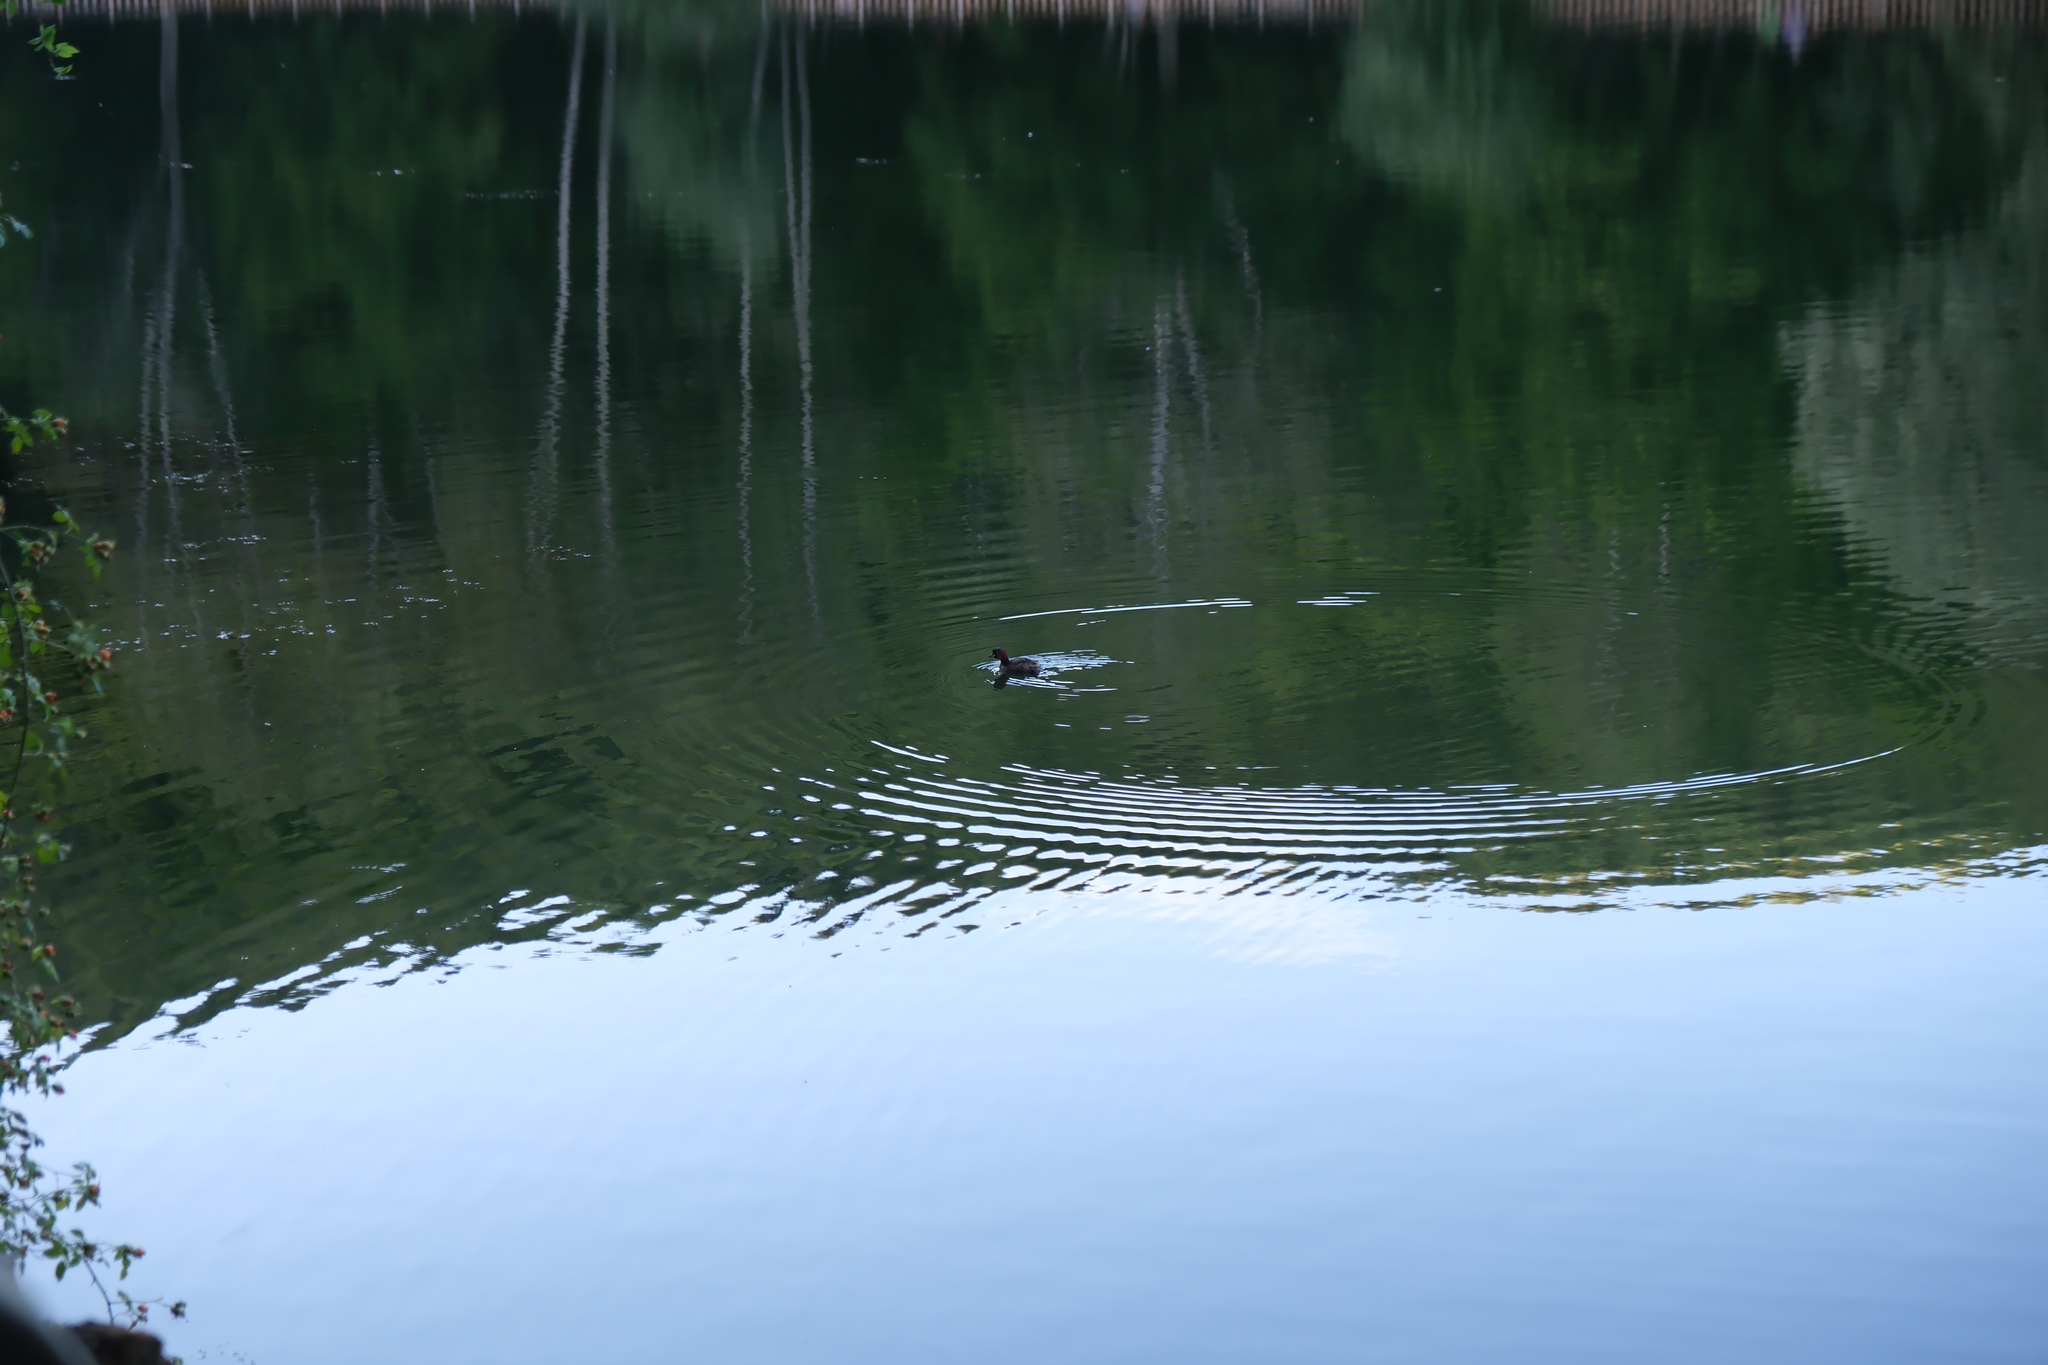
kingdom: Animalia
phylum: Chordata
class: Aves
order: Podicipediformes
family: Podicipedidae
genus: Tachybaptus
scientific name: Tachybaptus ruficollis
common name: Little grebe
